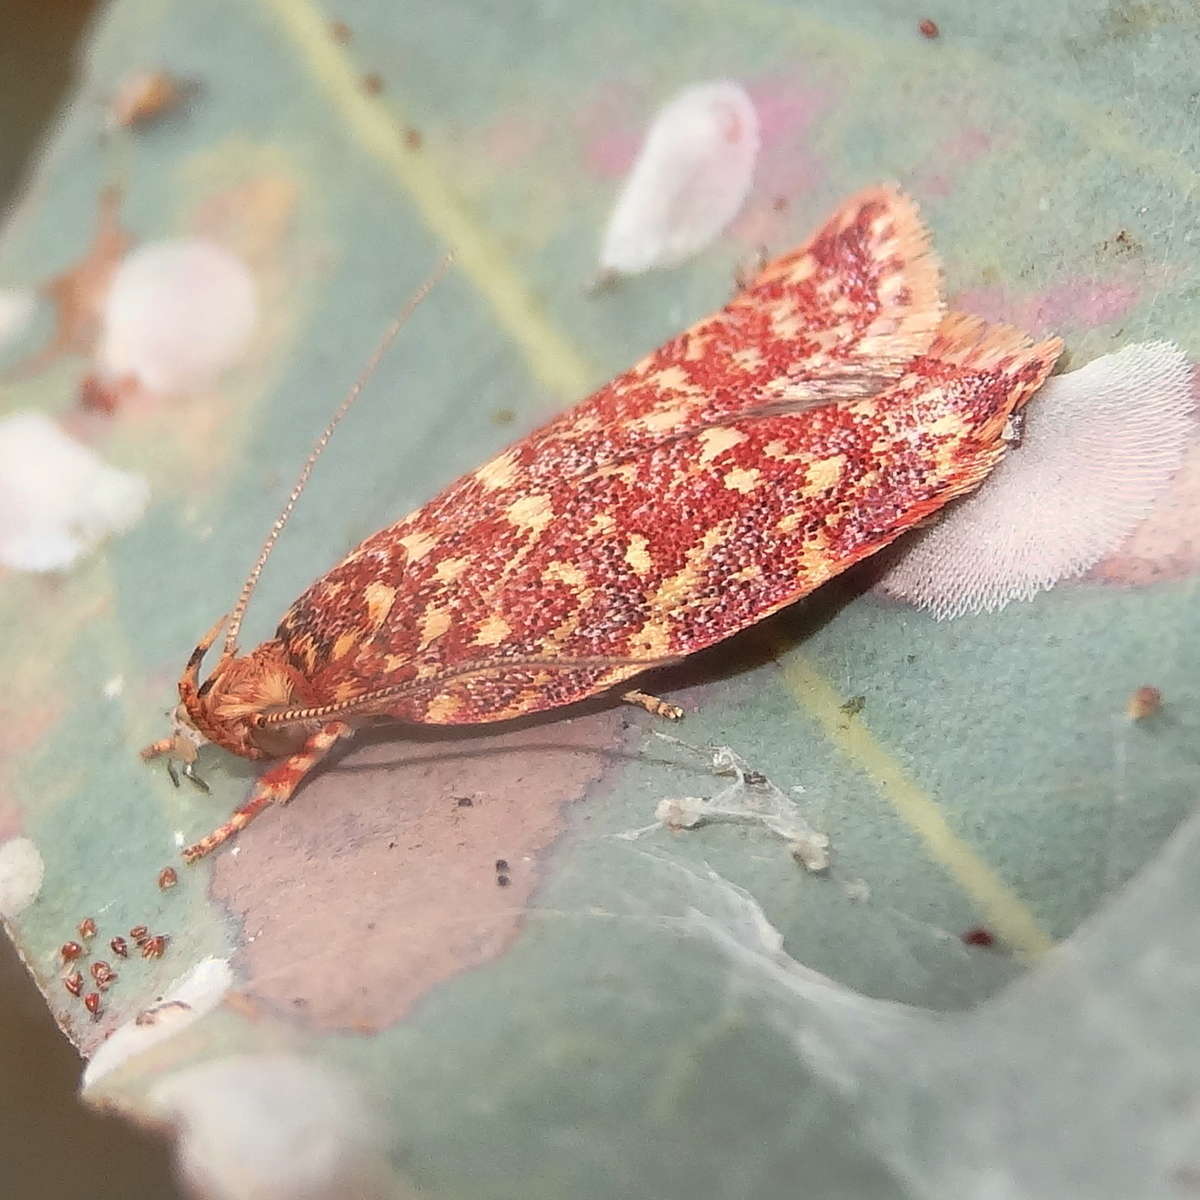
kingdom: Animalia
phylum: Arthropoda
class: Insecta
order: Lepidoptera
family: Oecophoridae
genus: Syringoseca
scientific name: Syringoseca rhodoxantha
